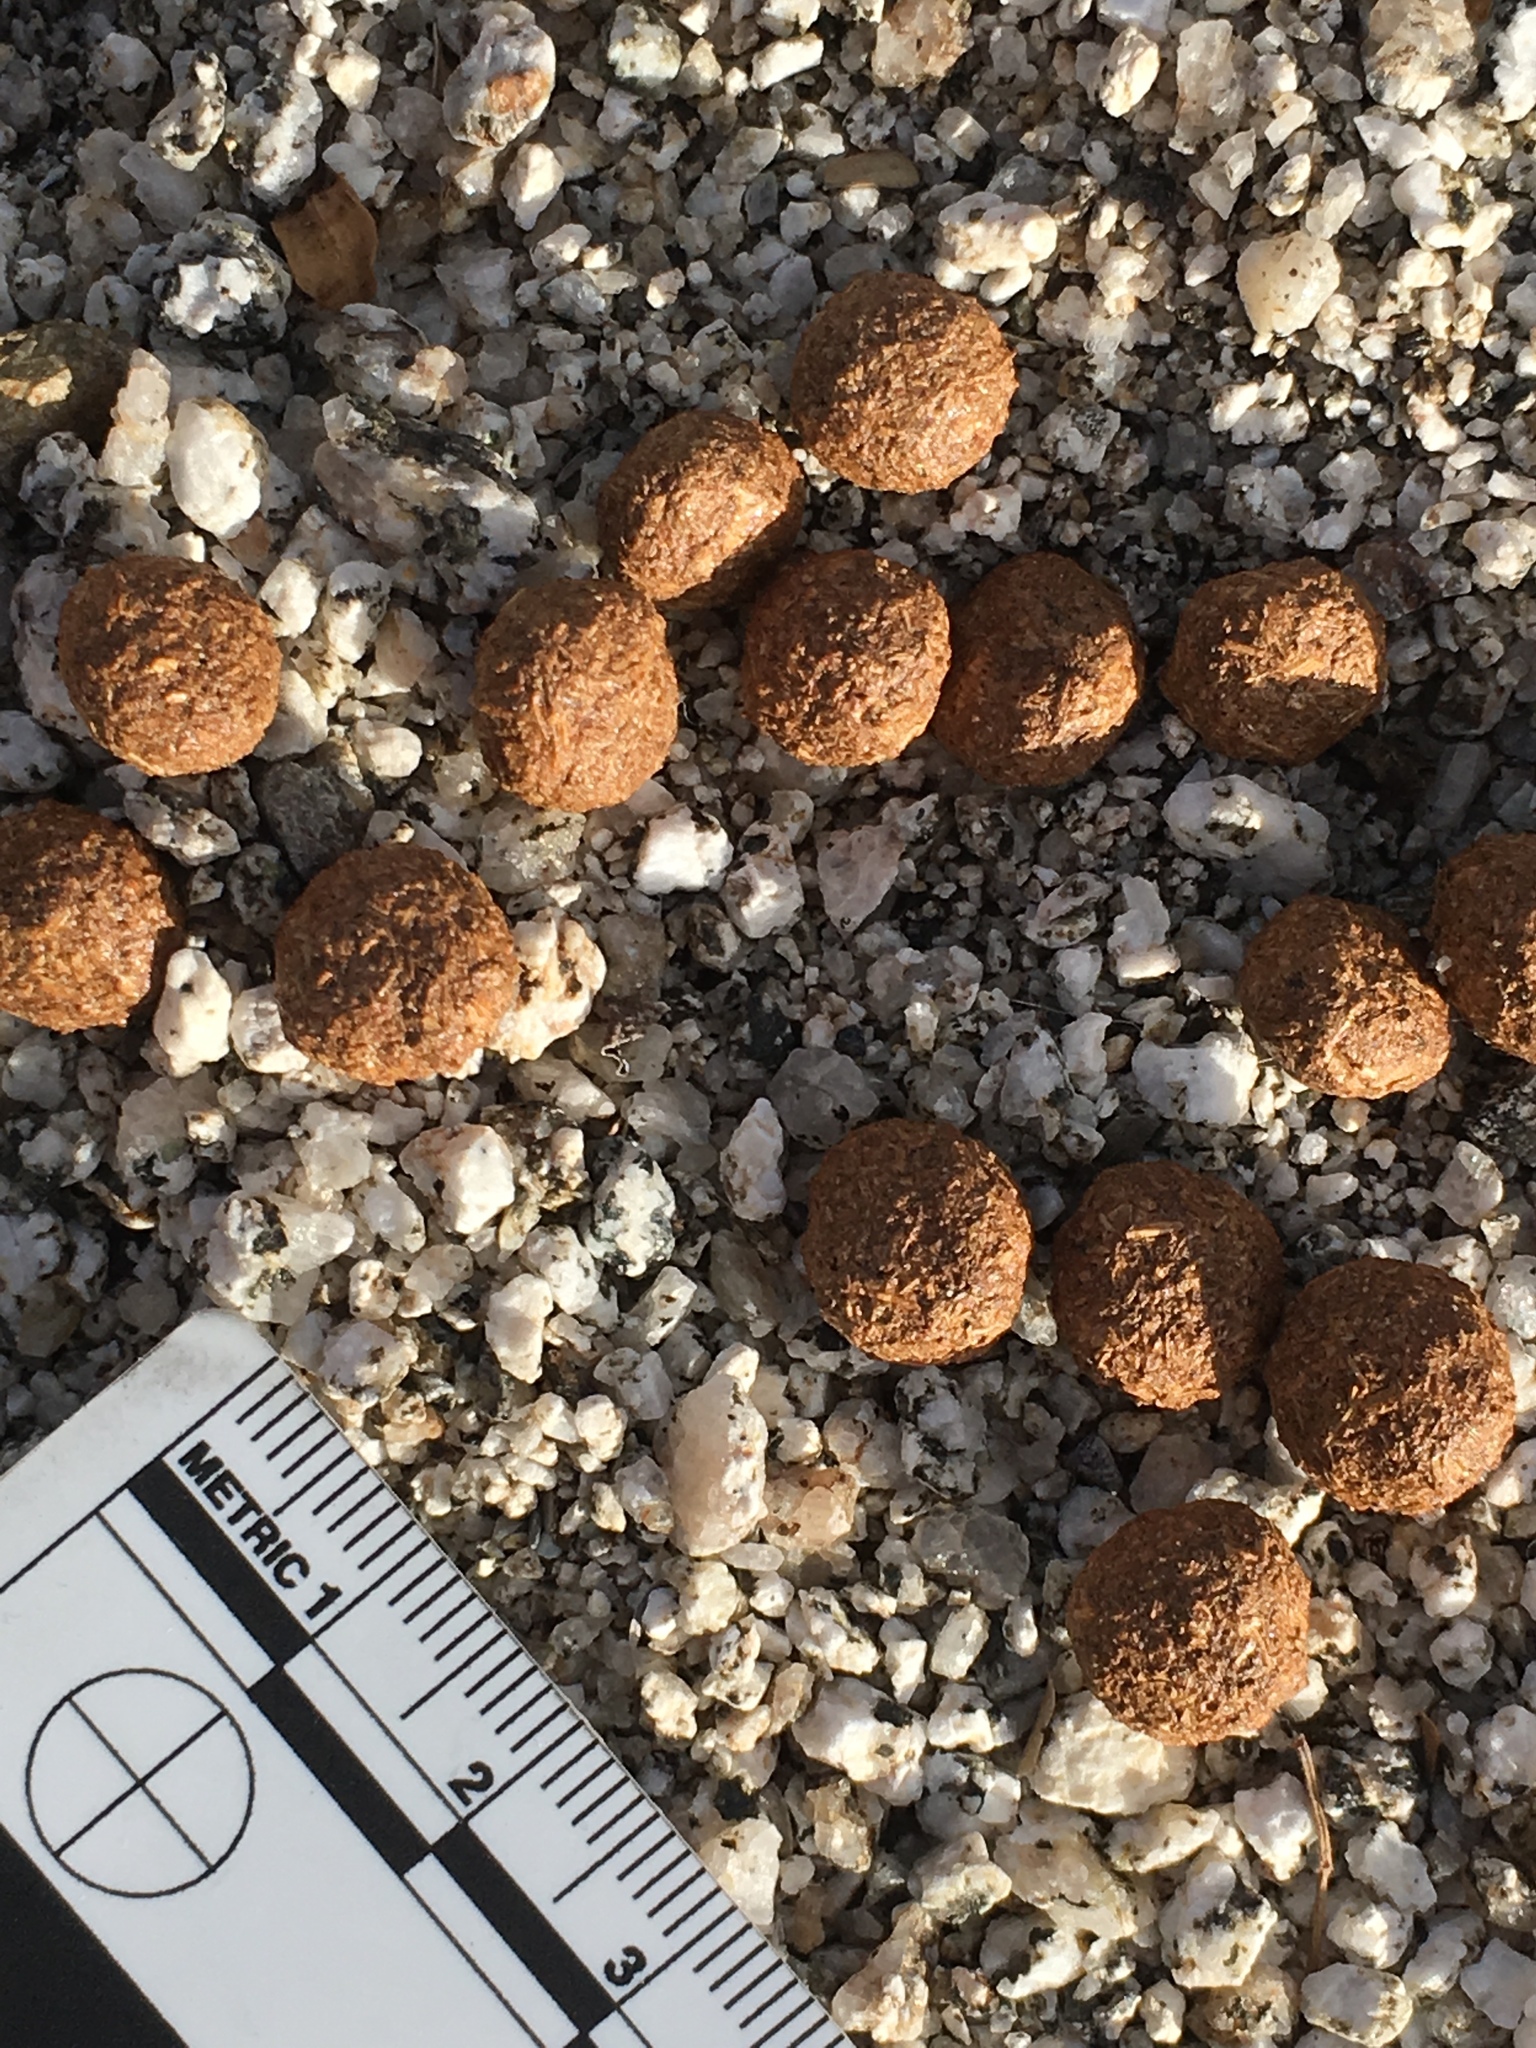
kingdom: Animalia
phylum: Chordata
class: Mammalia
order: Lagomorpha
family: Leporidae
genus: Lepus
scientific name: Lepus californicus
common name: Black-tailed jackrabbit
